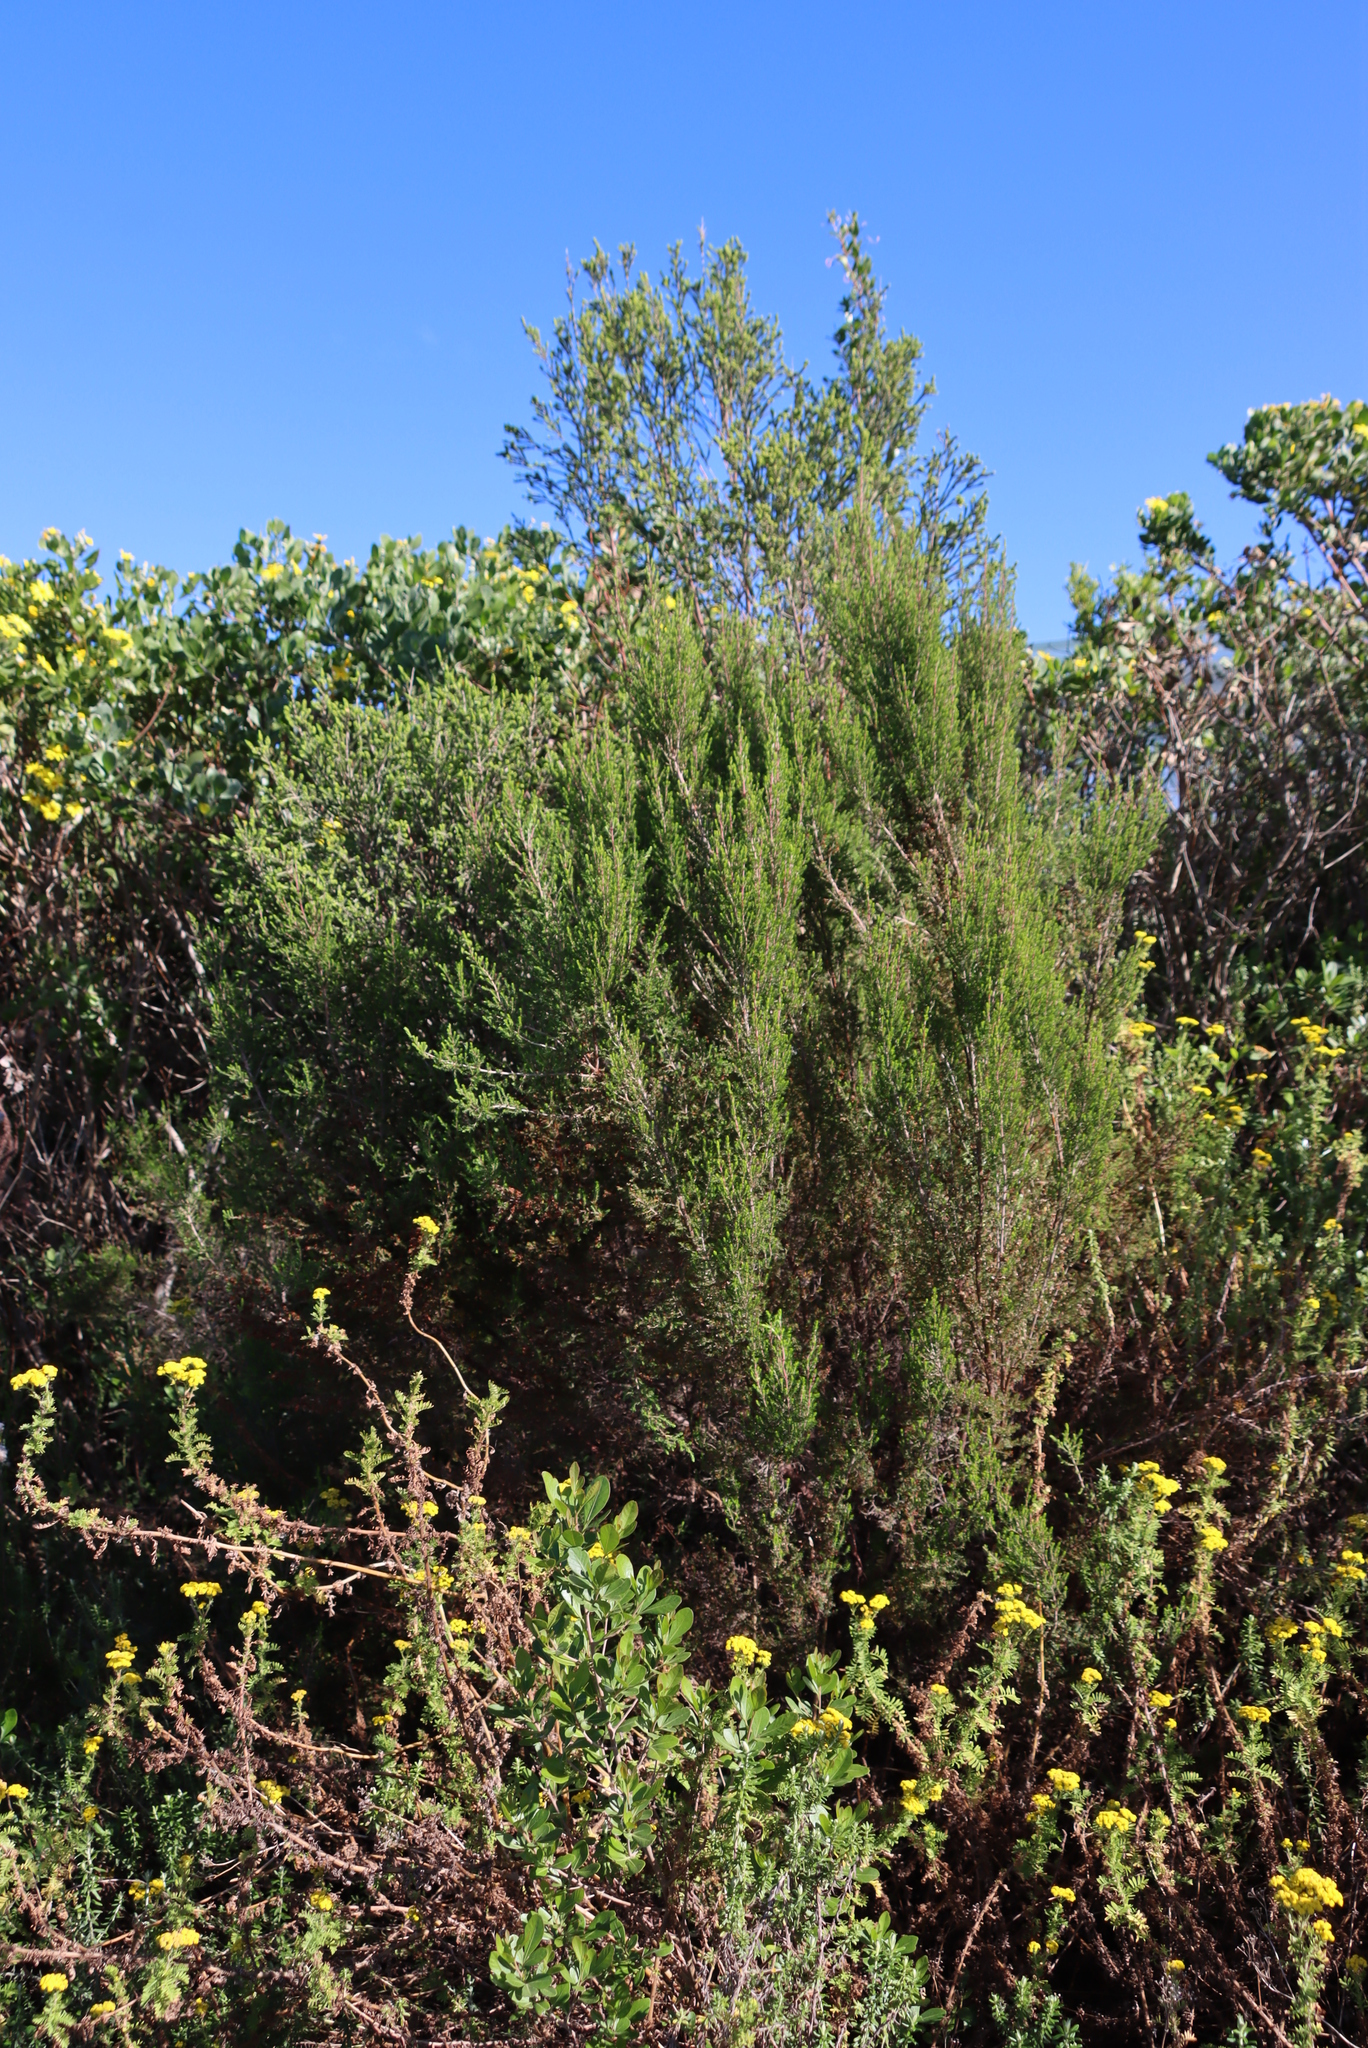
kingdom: Plantae
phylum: Tracheophyta
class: Magnoliopsida
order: Ericales
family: Ericaceae
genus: Erica
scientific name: Erica peltata
